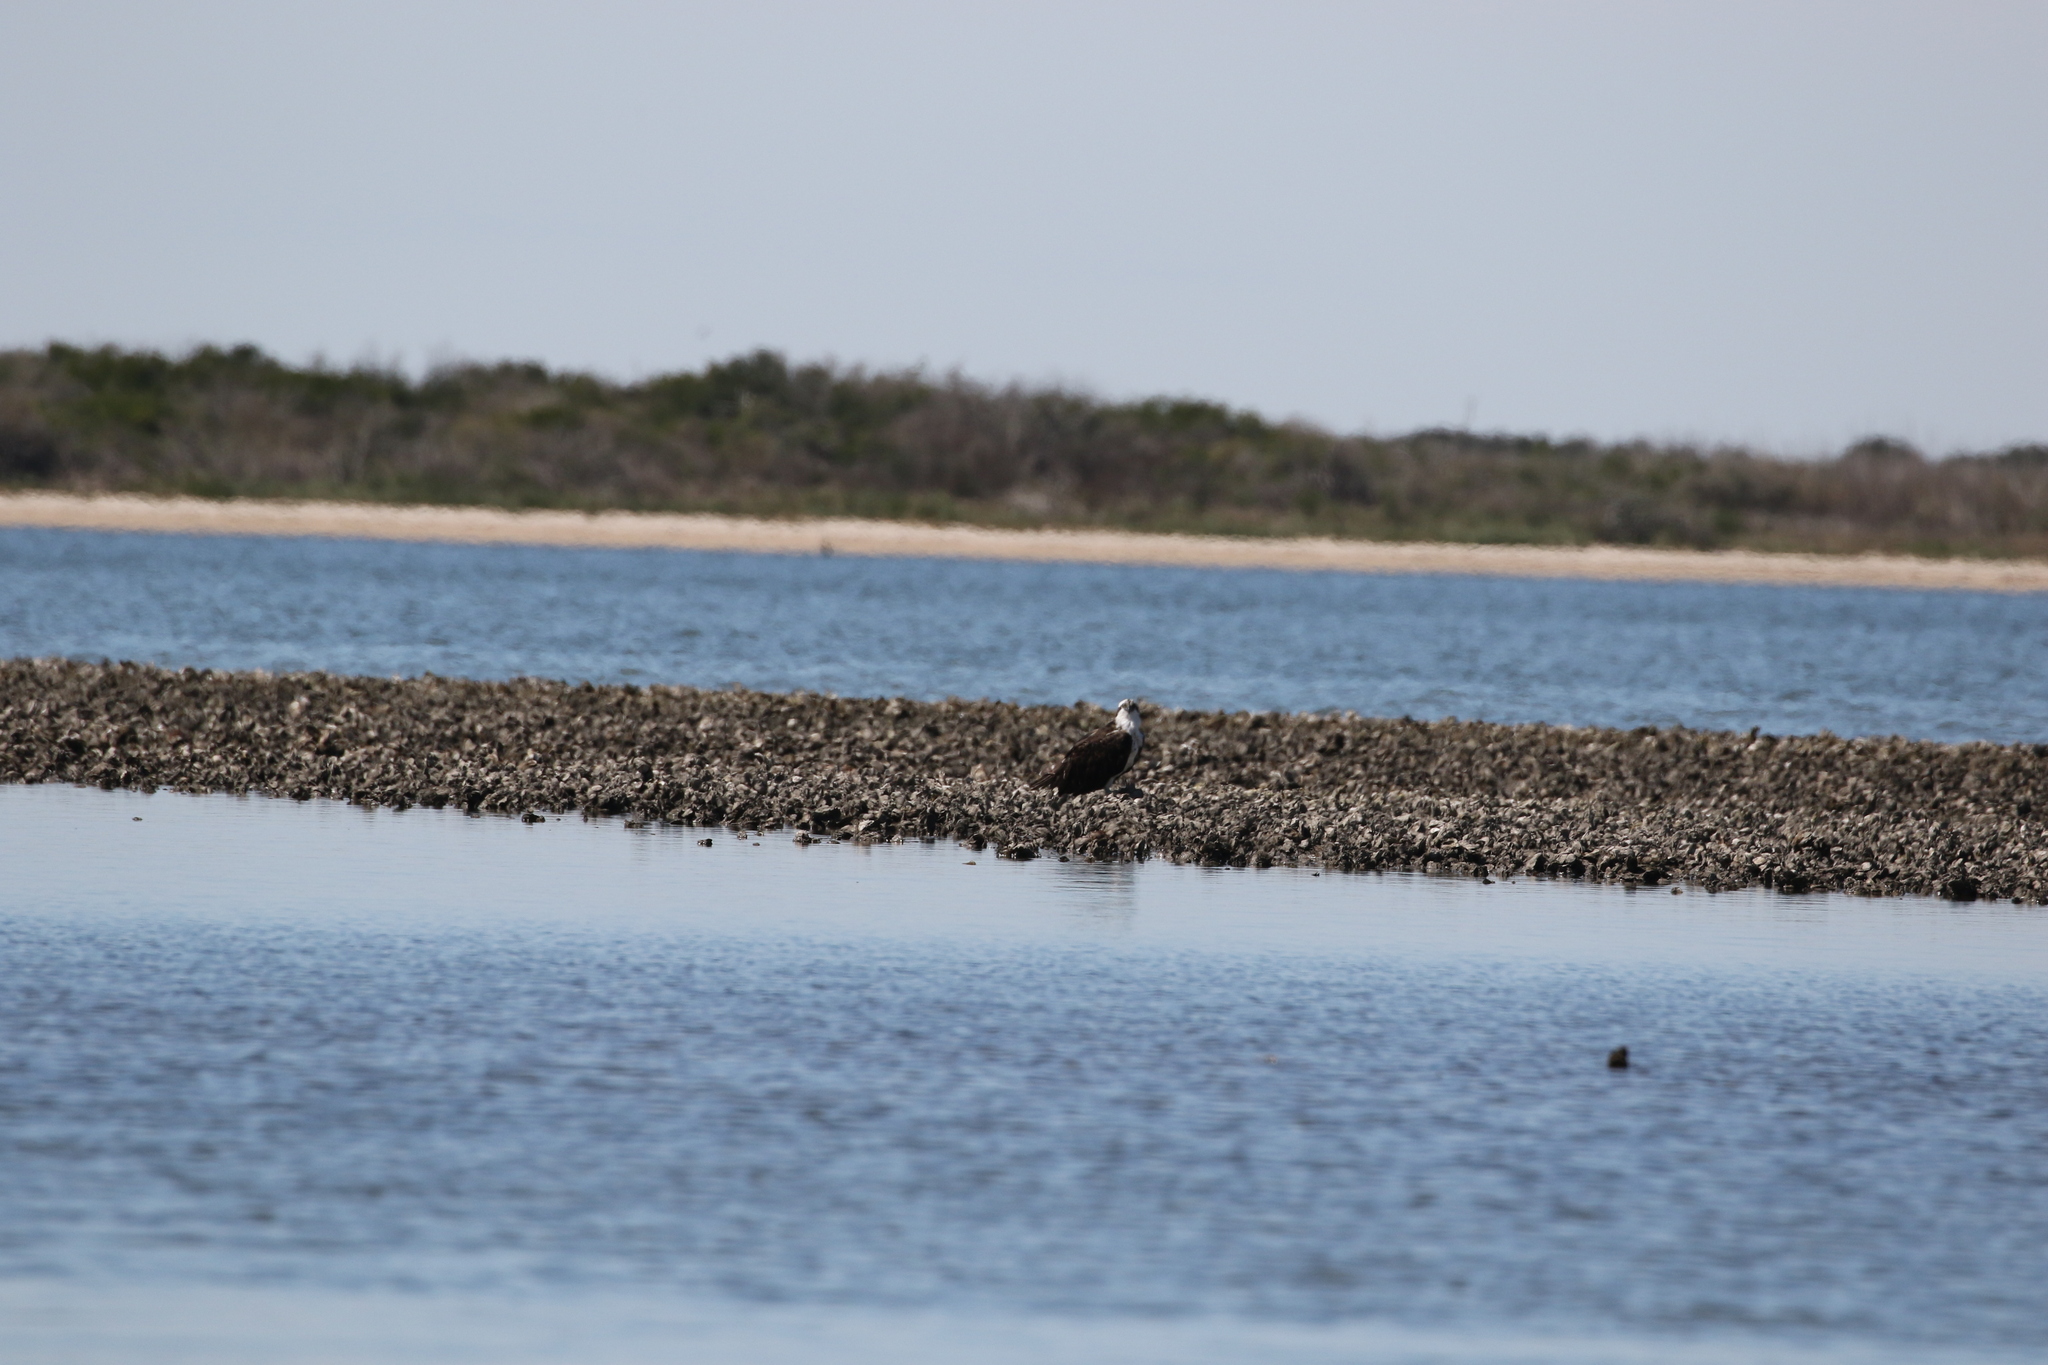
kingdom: Animalia
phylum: Chordata
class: Aves
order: Accipitriformes
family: Pandionidae
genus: Pandion
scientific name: Pandion haliaetus
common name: Osprey
